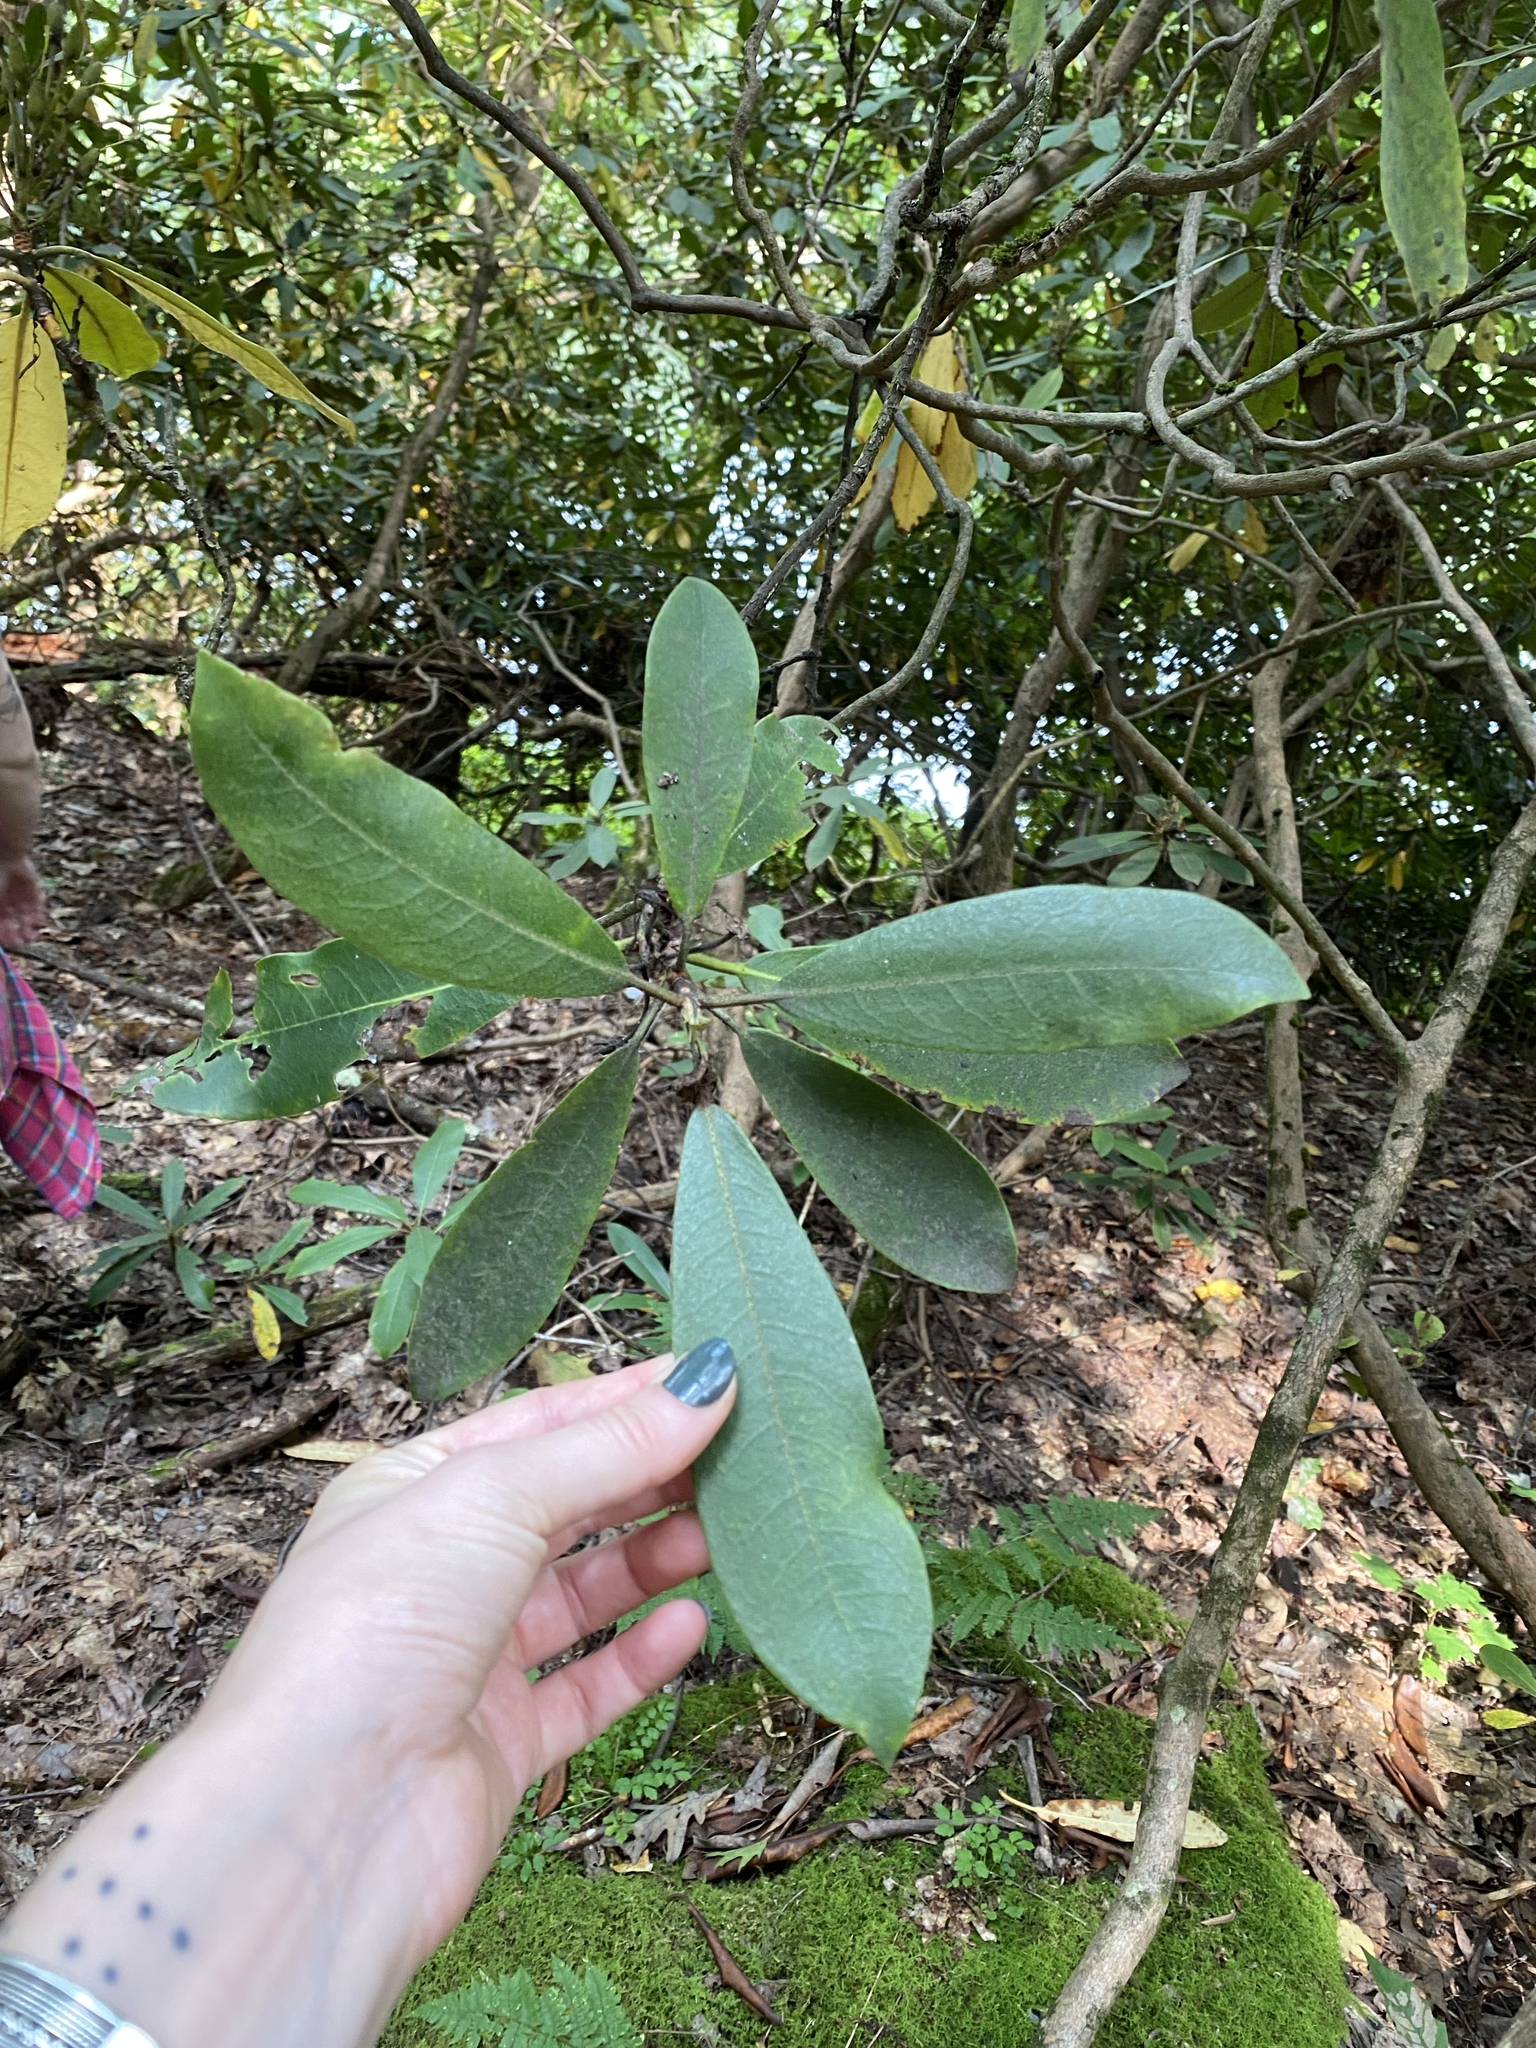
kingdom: Plantae
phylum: Tracheophyta
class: Magnoliopsida
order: Ericales
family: Ericaceae
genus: Rhododendron
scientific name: Rhododendron maximum
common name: Great rhododendron
